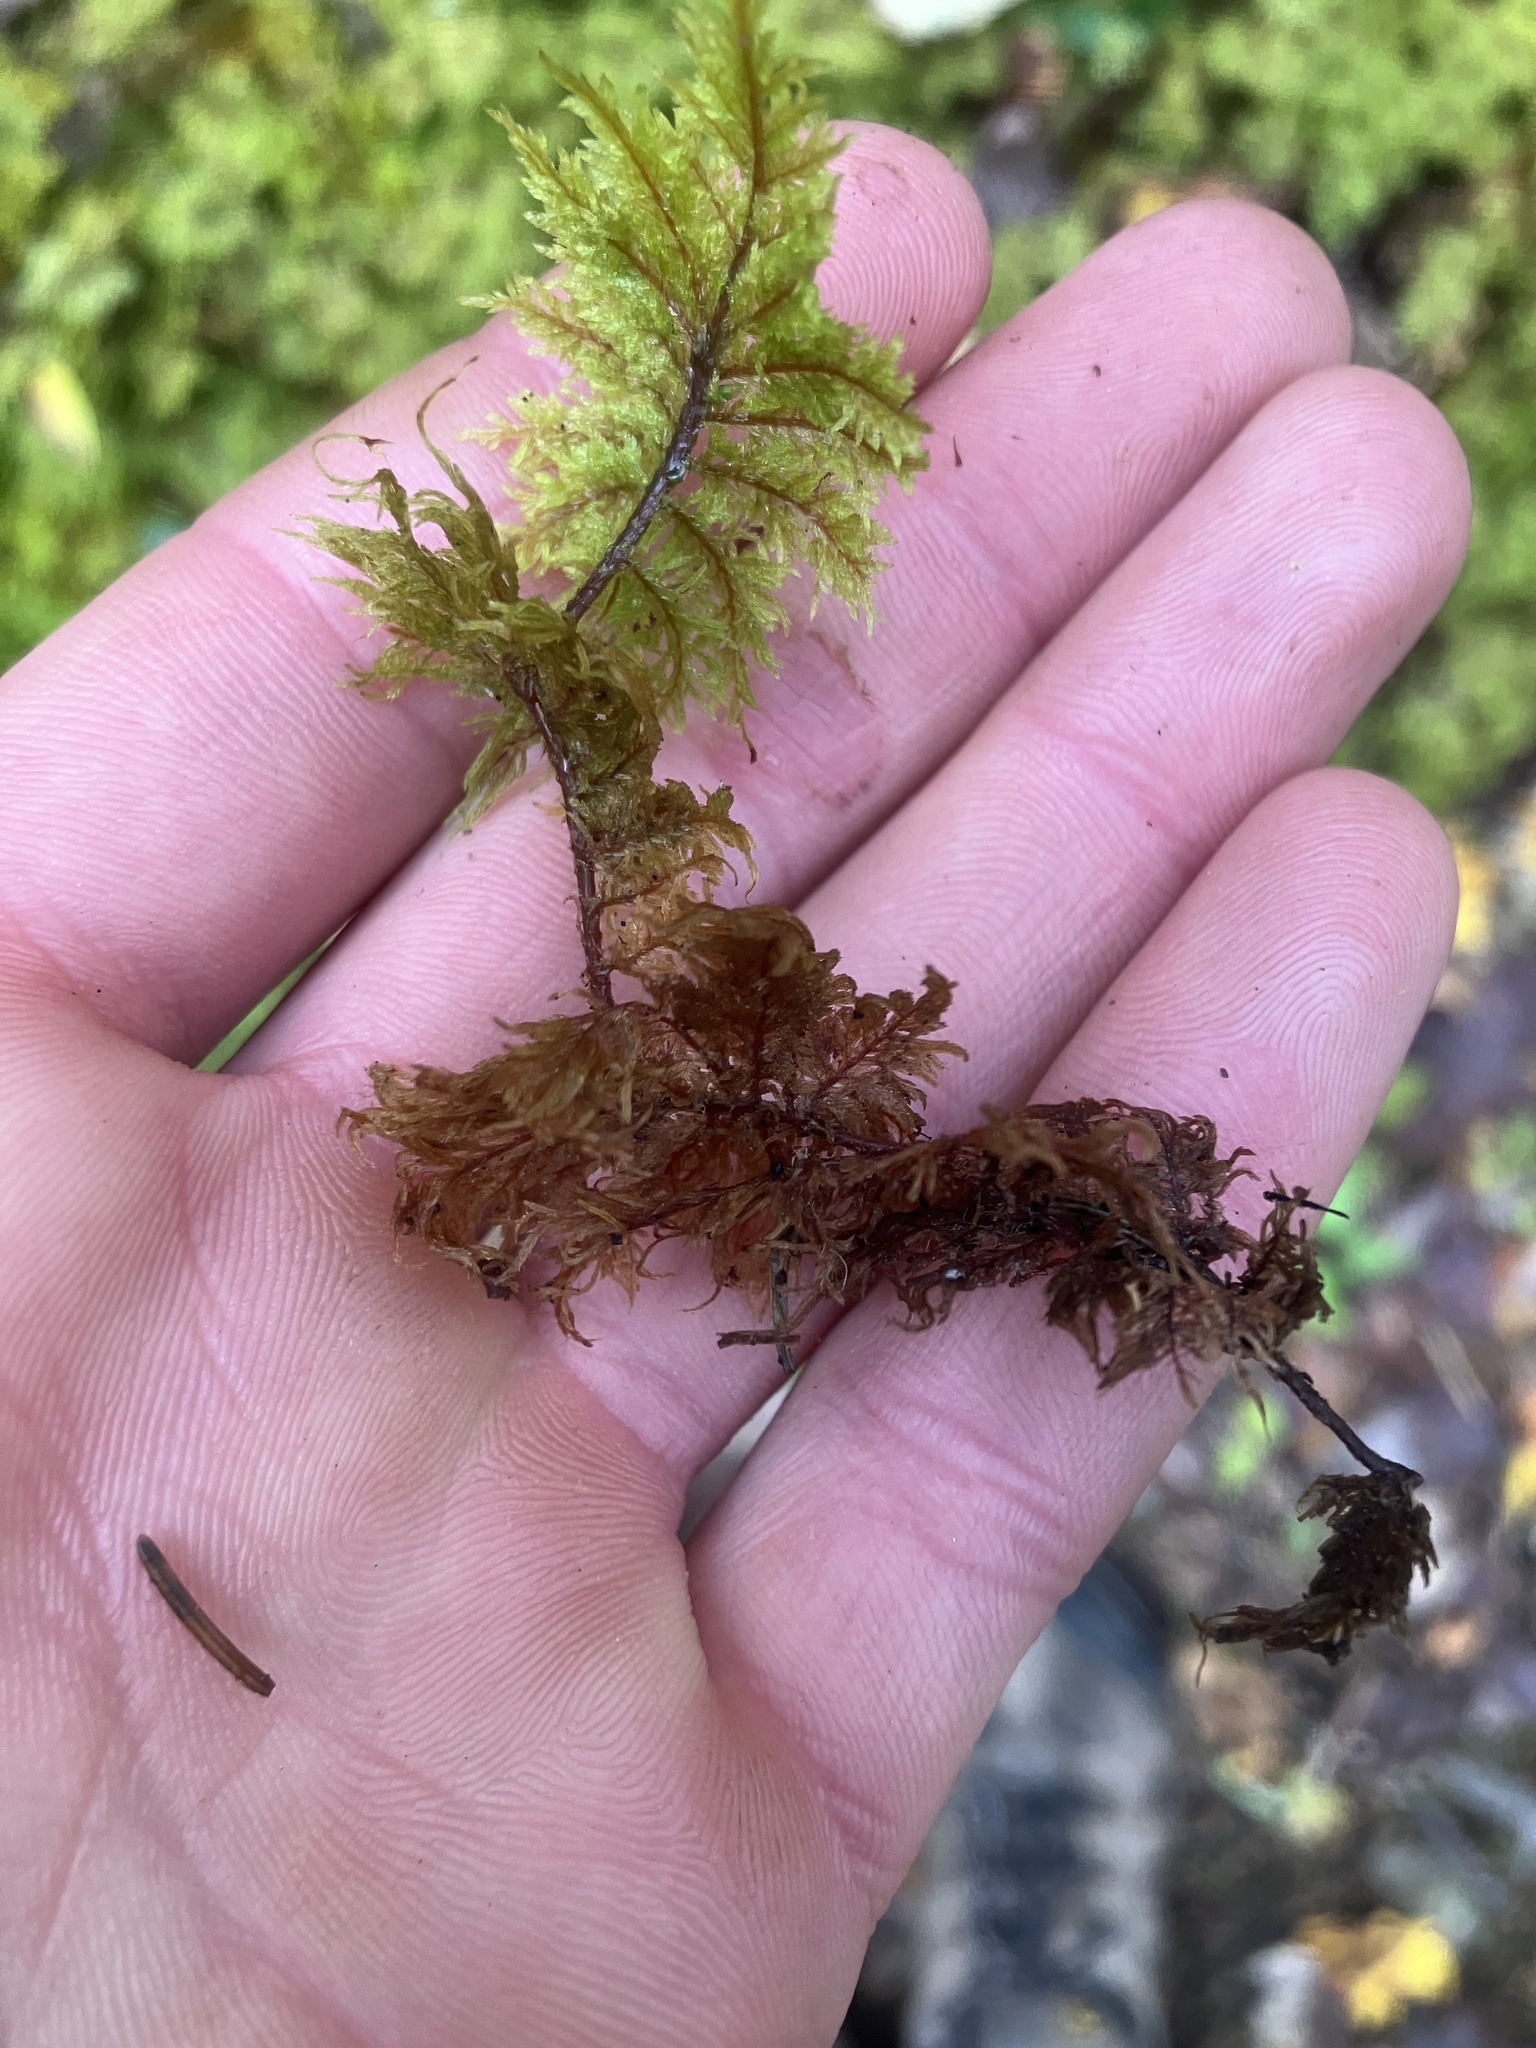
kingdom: Plantae
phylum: Bryophyta
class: Bryopsida
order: Hypnales
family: Hylocomiaceae
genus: Hylocomium
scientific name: Hylocomium splendens
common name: Stairstep moss
